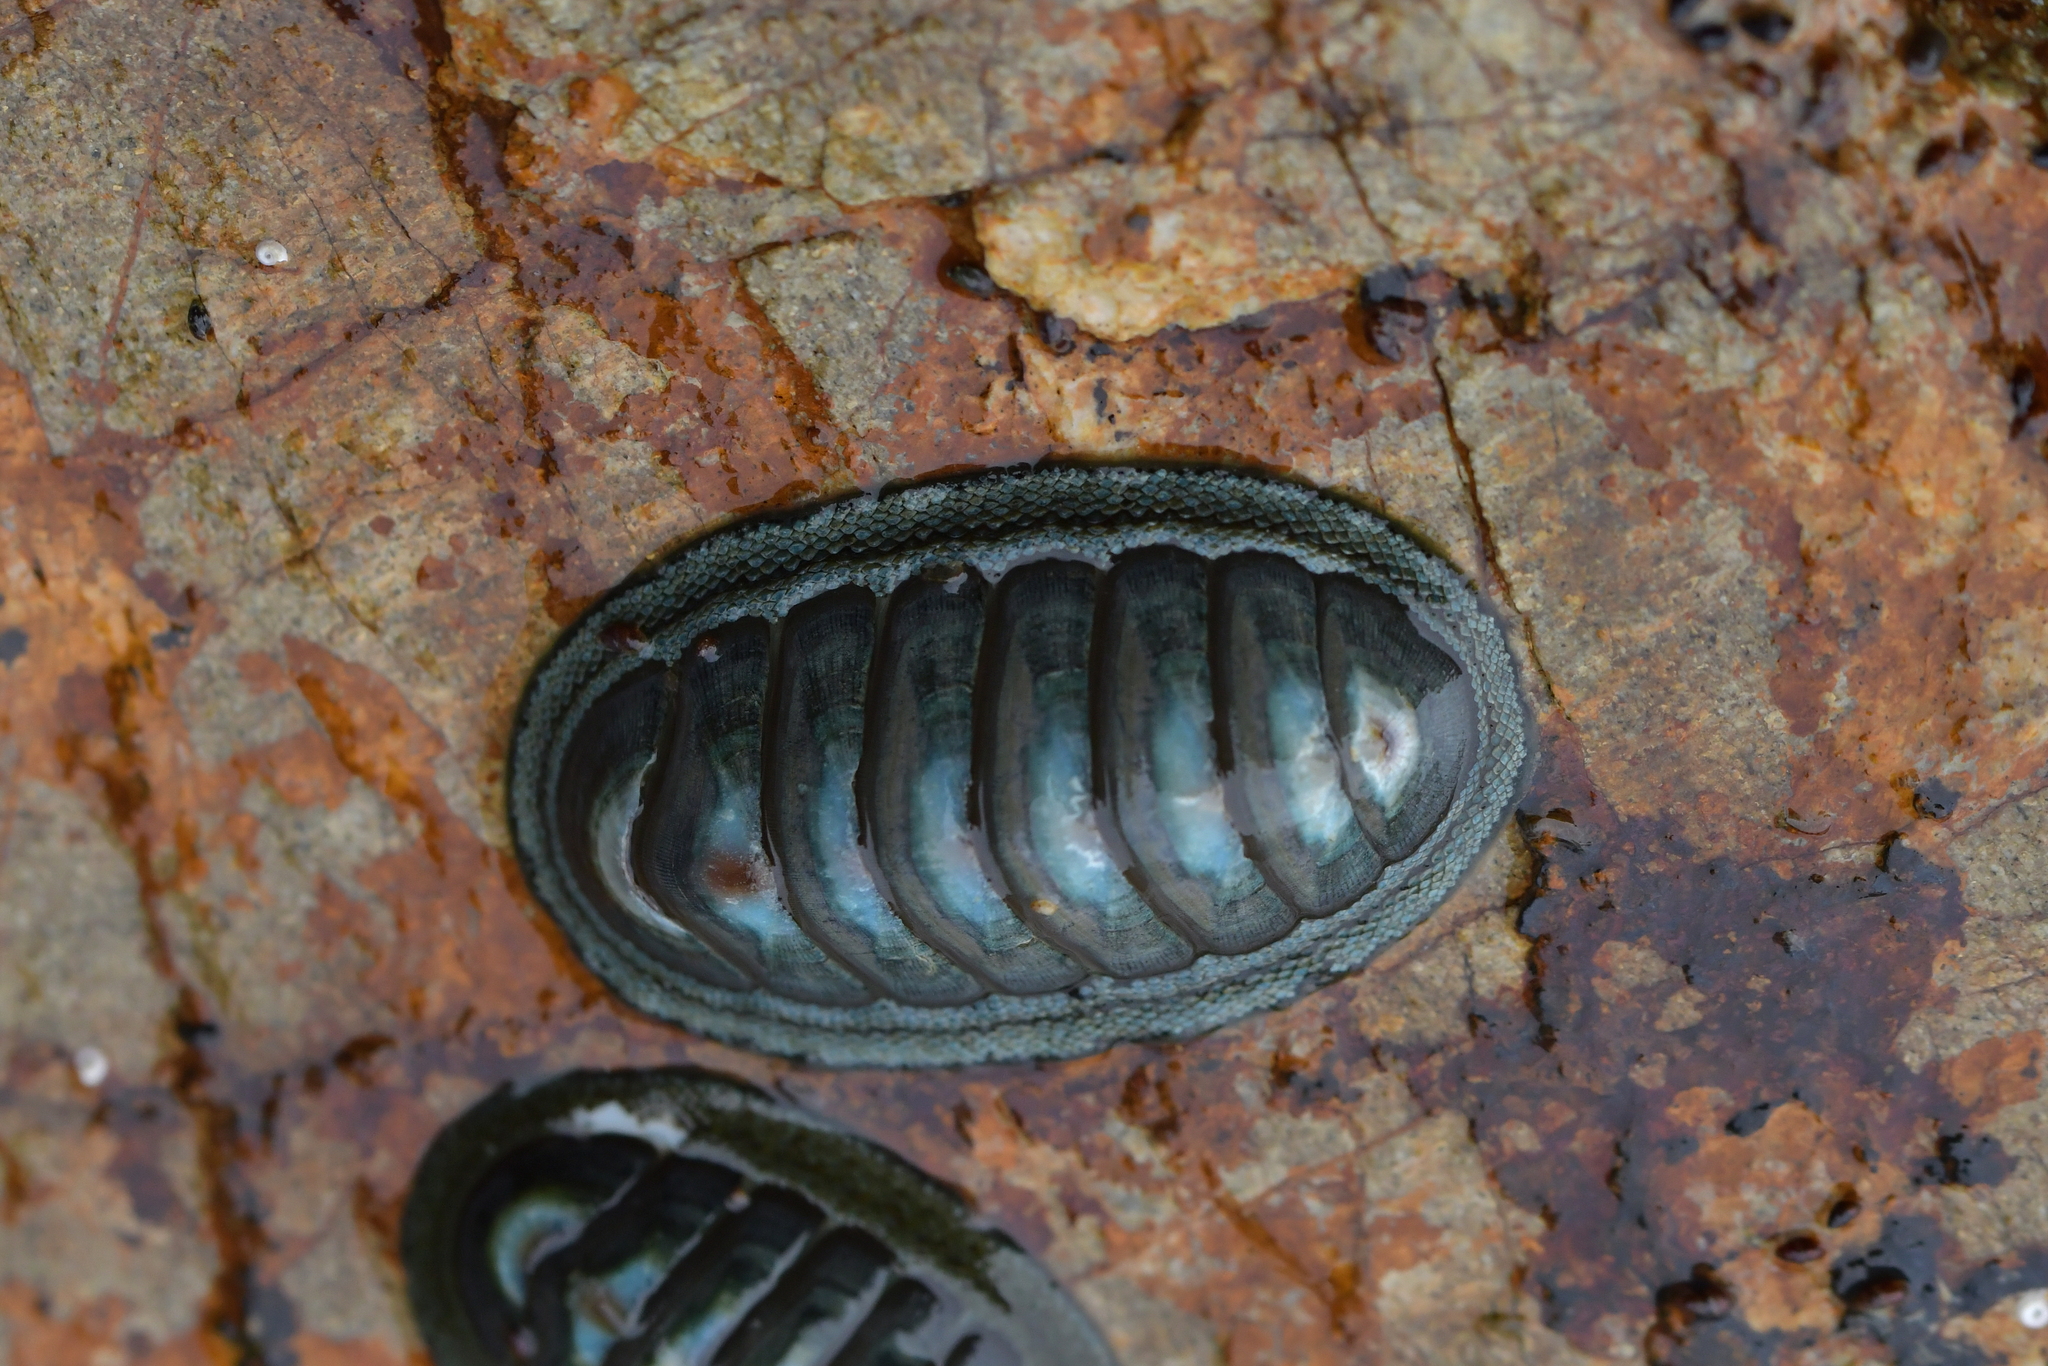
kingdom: Animalia
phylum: Mollusca
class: Polyplacophora
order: Chitonida
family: Chitonidae
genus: Chiton
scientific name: Chiton glaucus
